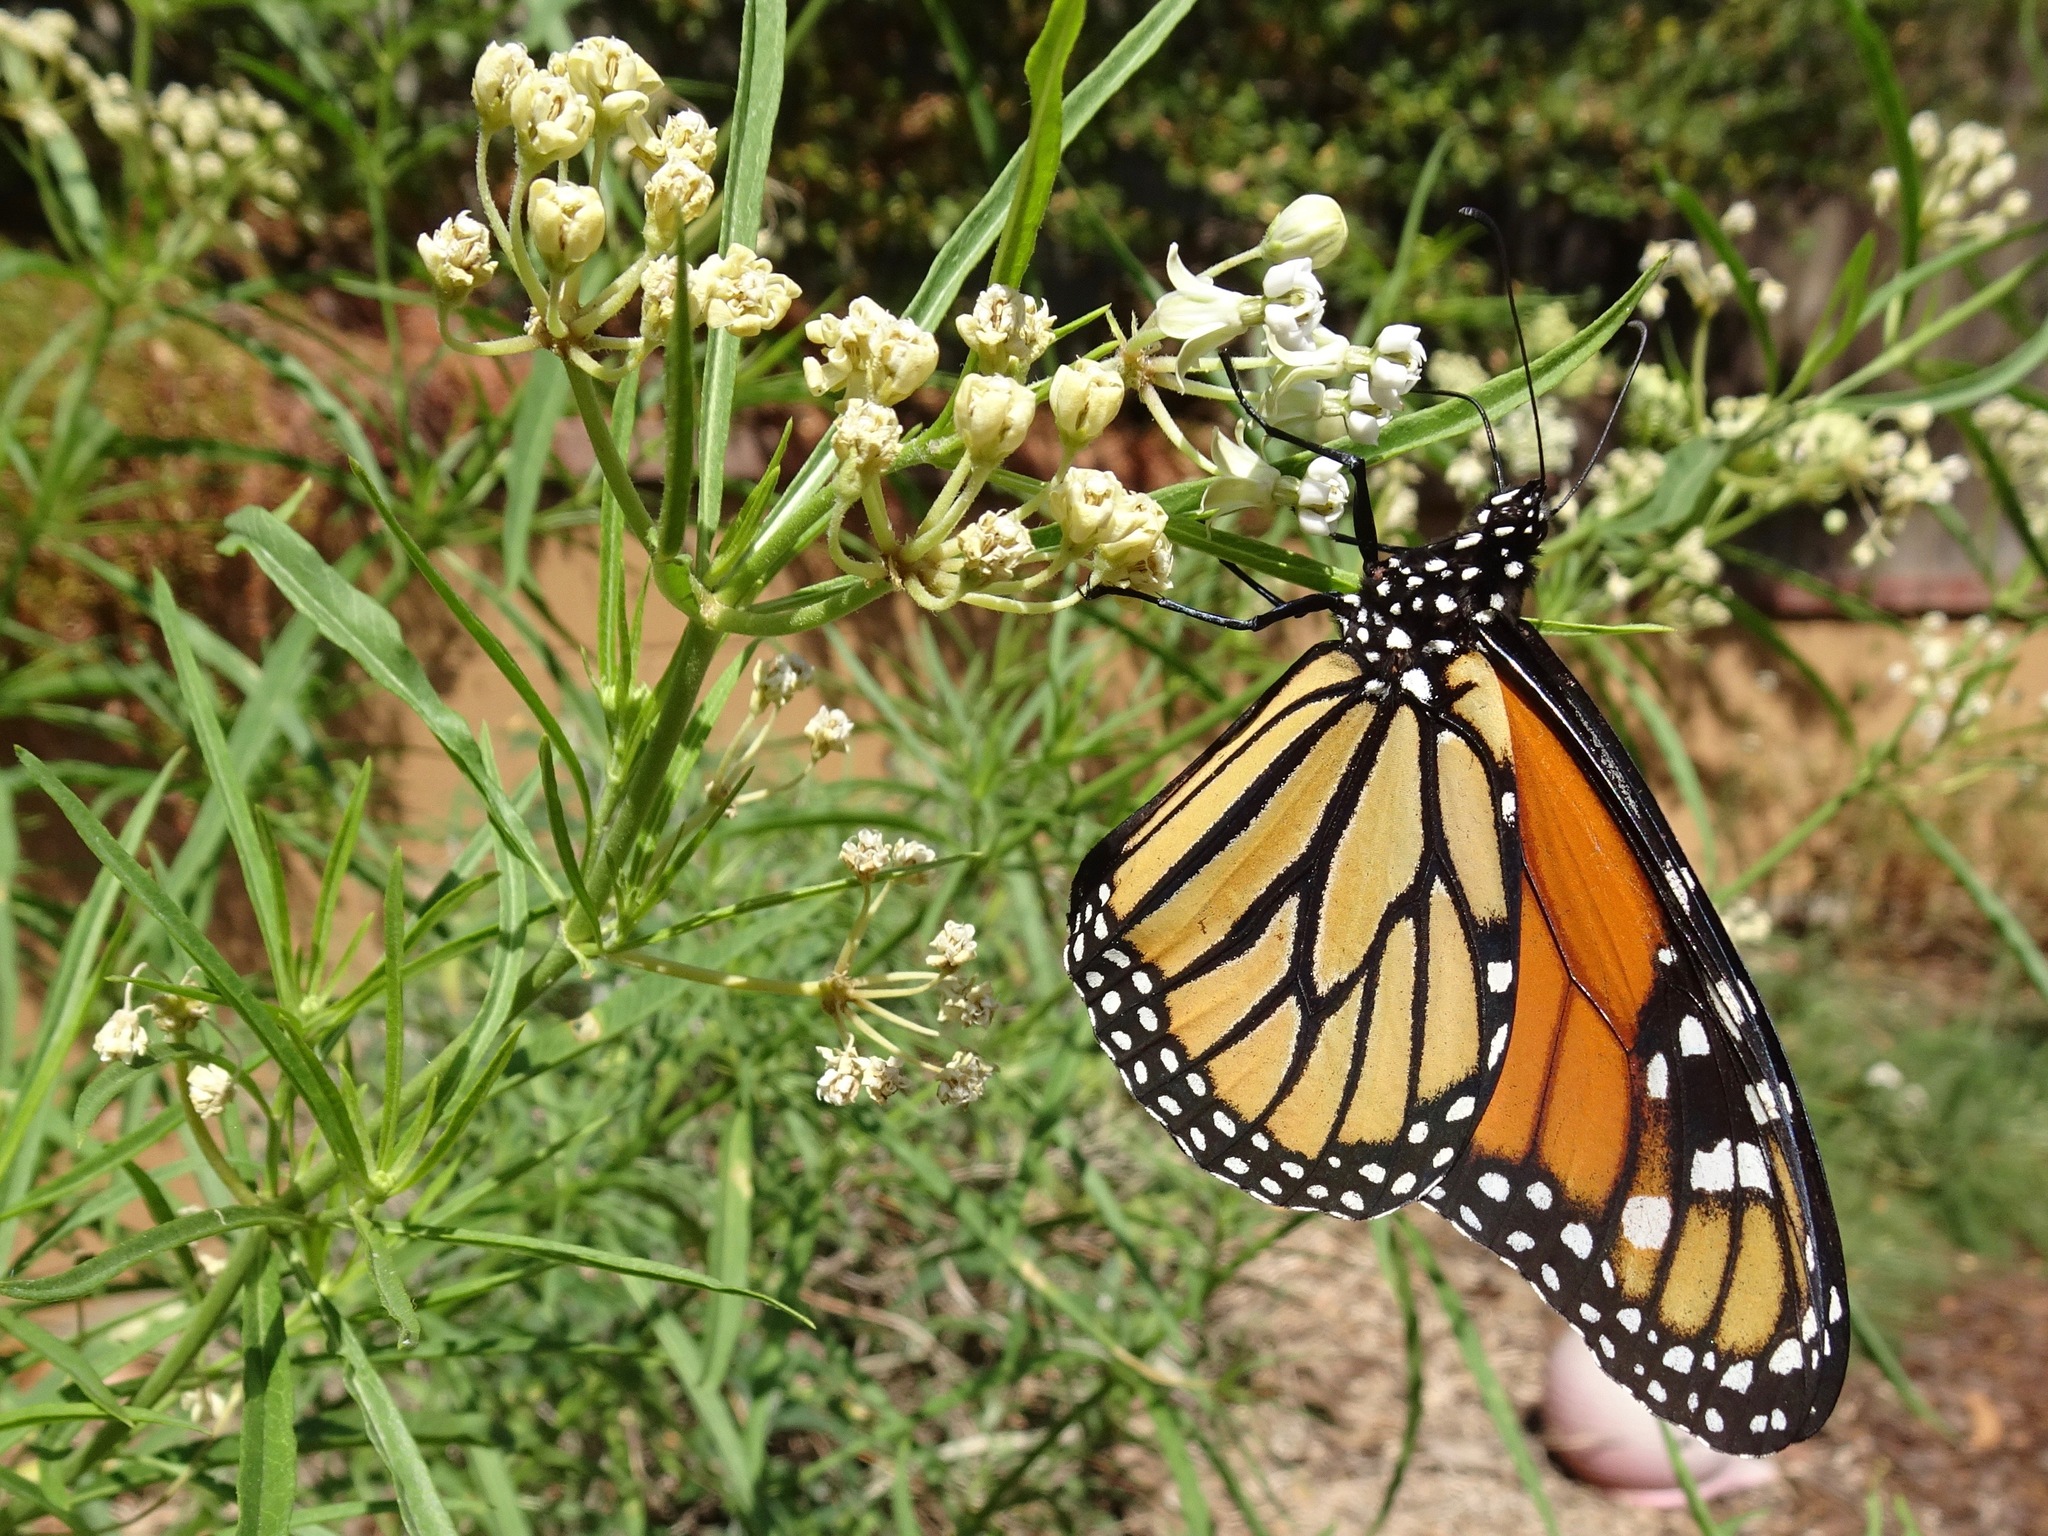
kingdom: Animalia
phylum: Arthropoda
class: Insecta
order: Lepidoptera
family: Nymphalidae
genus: Danaus
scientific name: Danaus plexippus
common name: Monarch
